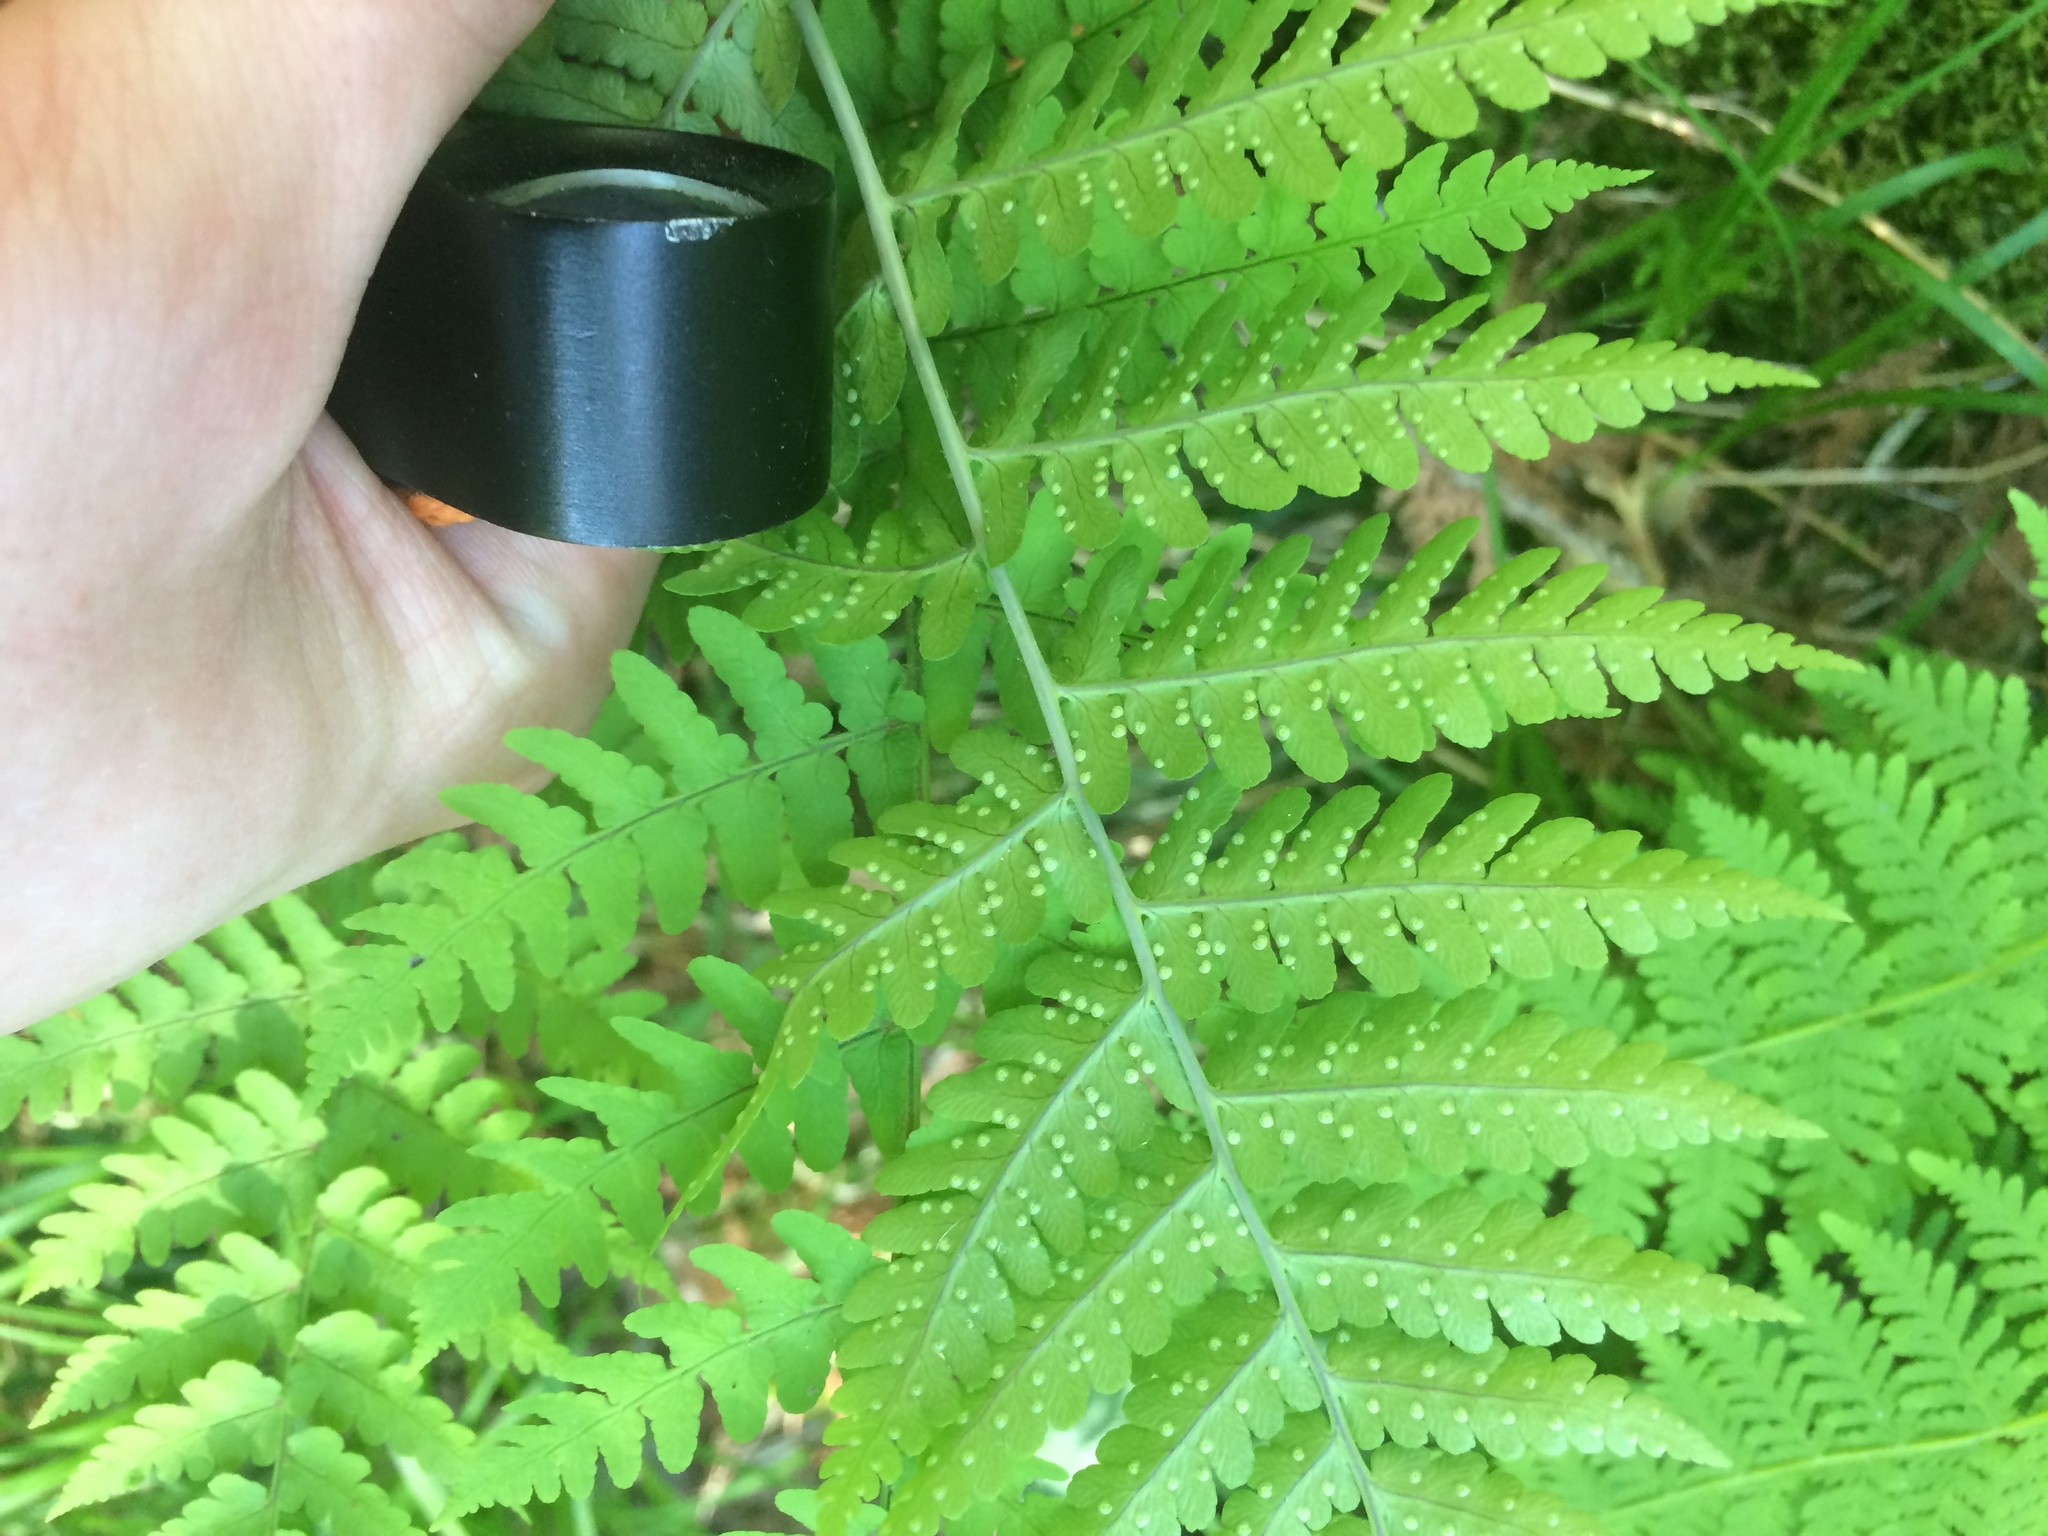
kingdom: Plantae
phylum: Tracheophyta
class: Polypodiopsida
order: Polypodiales
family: Dryopteridaceae
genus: Dryopteris
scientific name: Dryopteris marginalis
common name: Marginal wood fern
